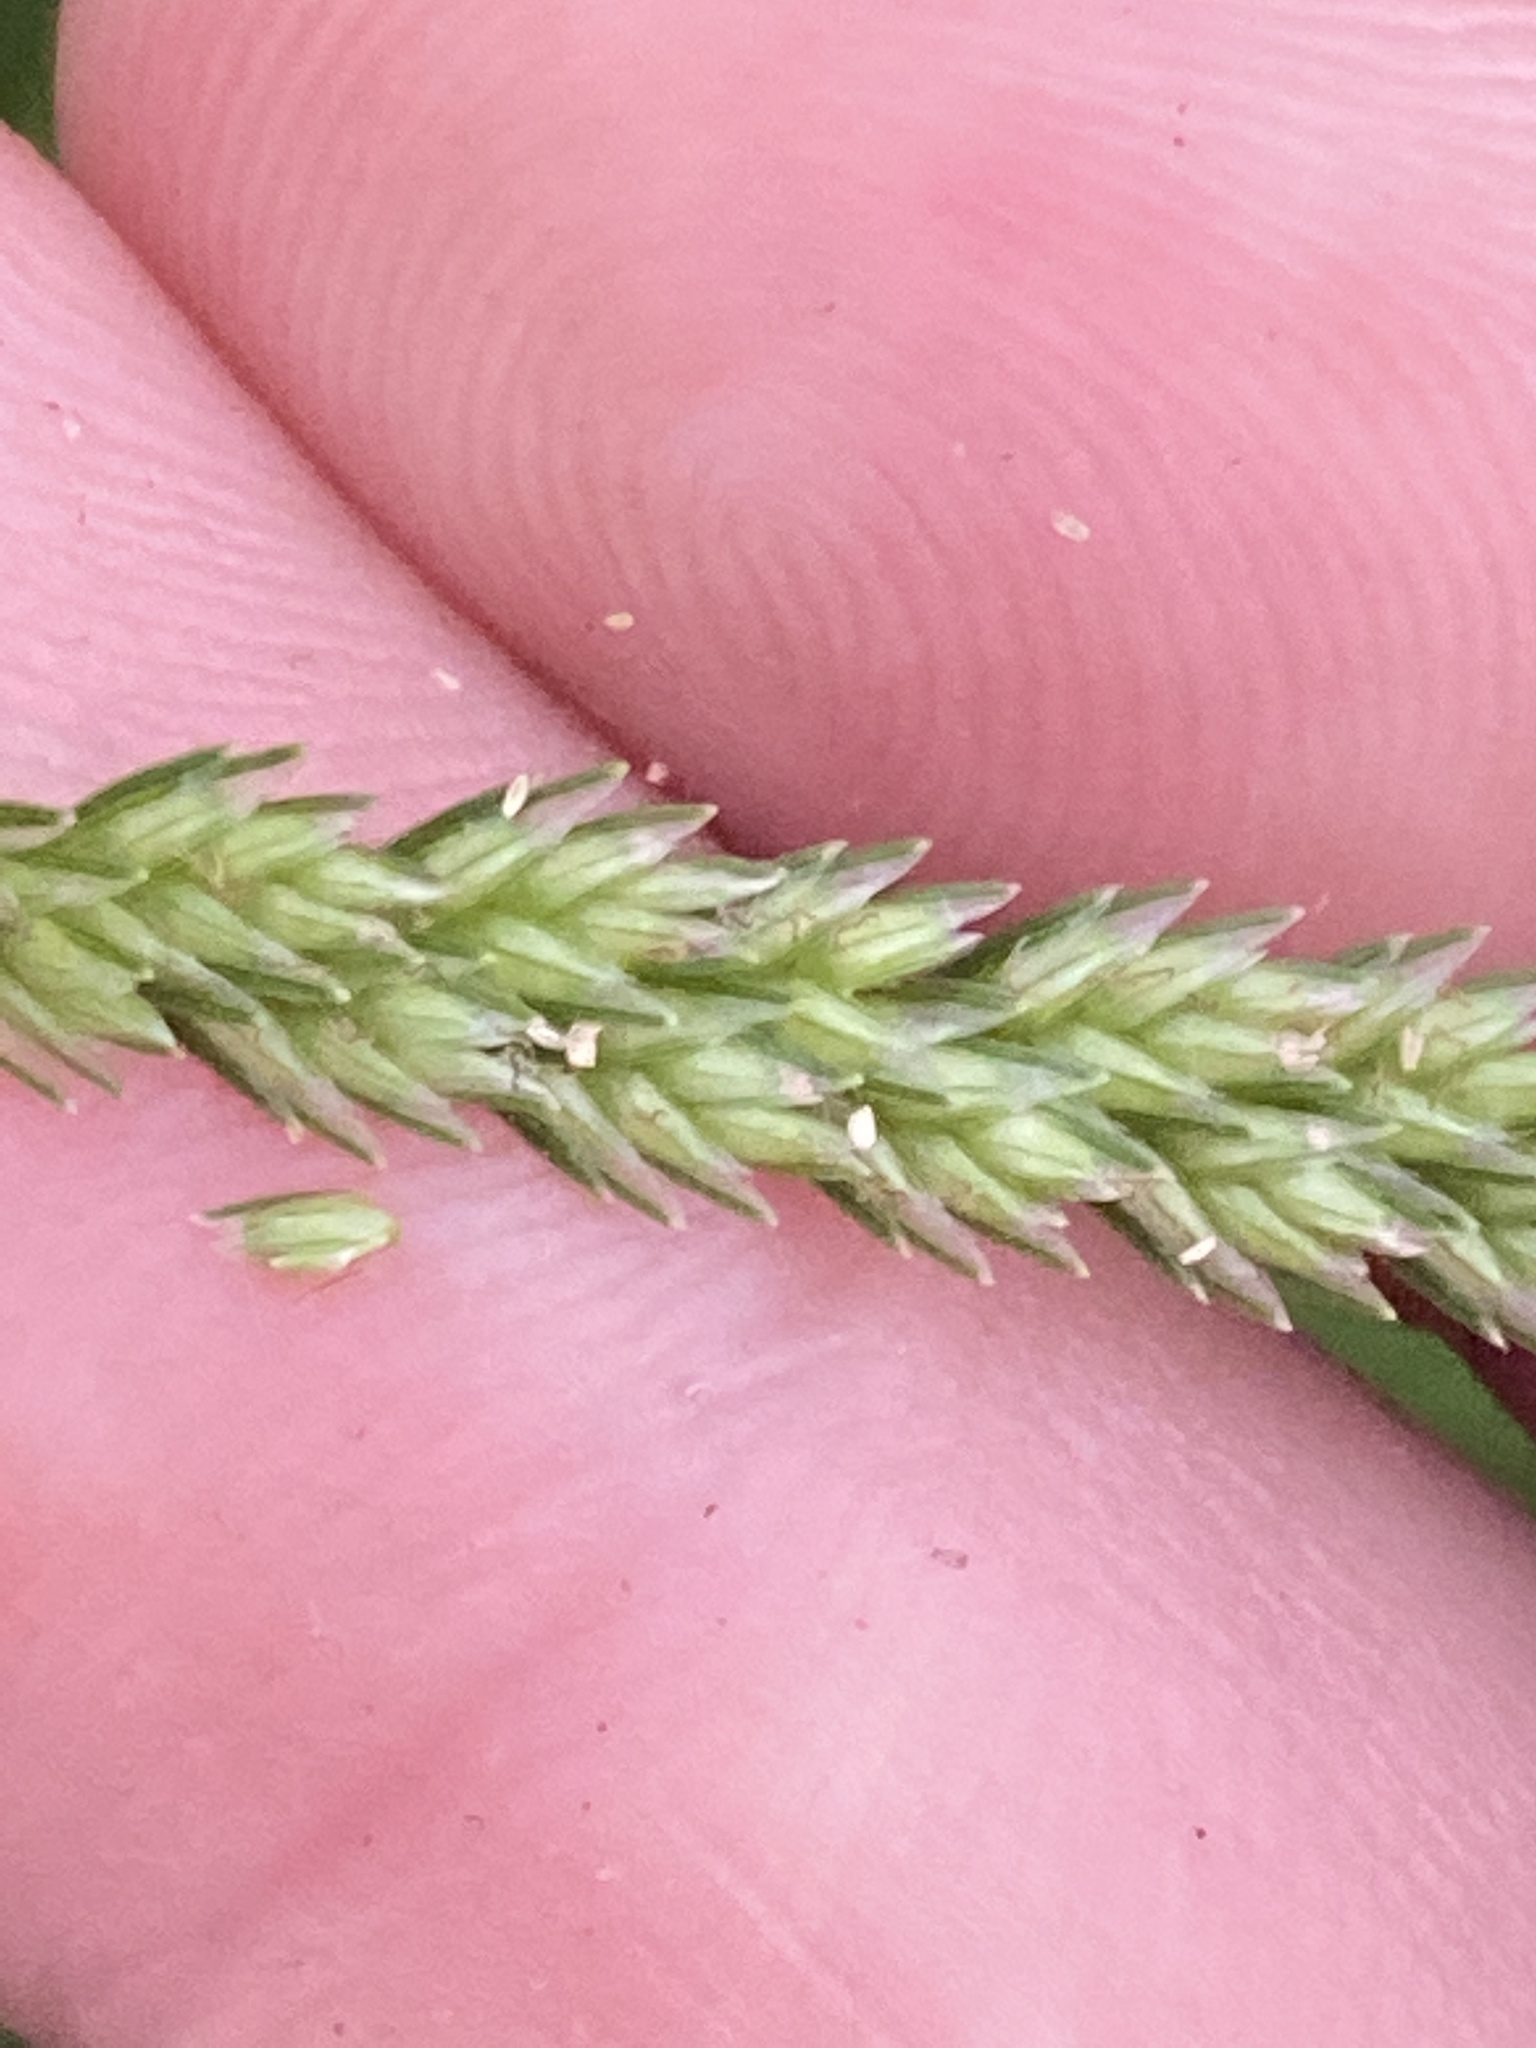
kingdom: Plantae
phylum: Tracheophyta
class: Liliopsida
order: Poales
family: Poaceae
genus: Eleusine
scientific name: Eleusine indica
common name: Yard-grass
